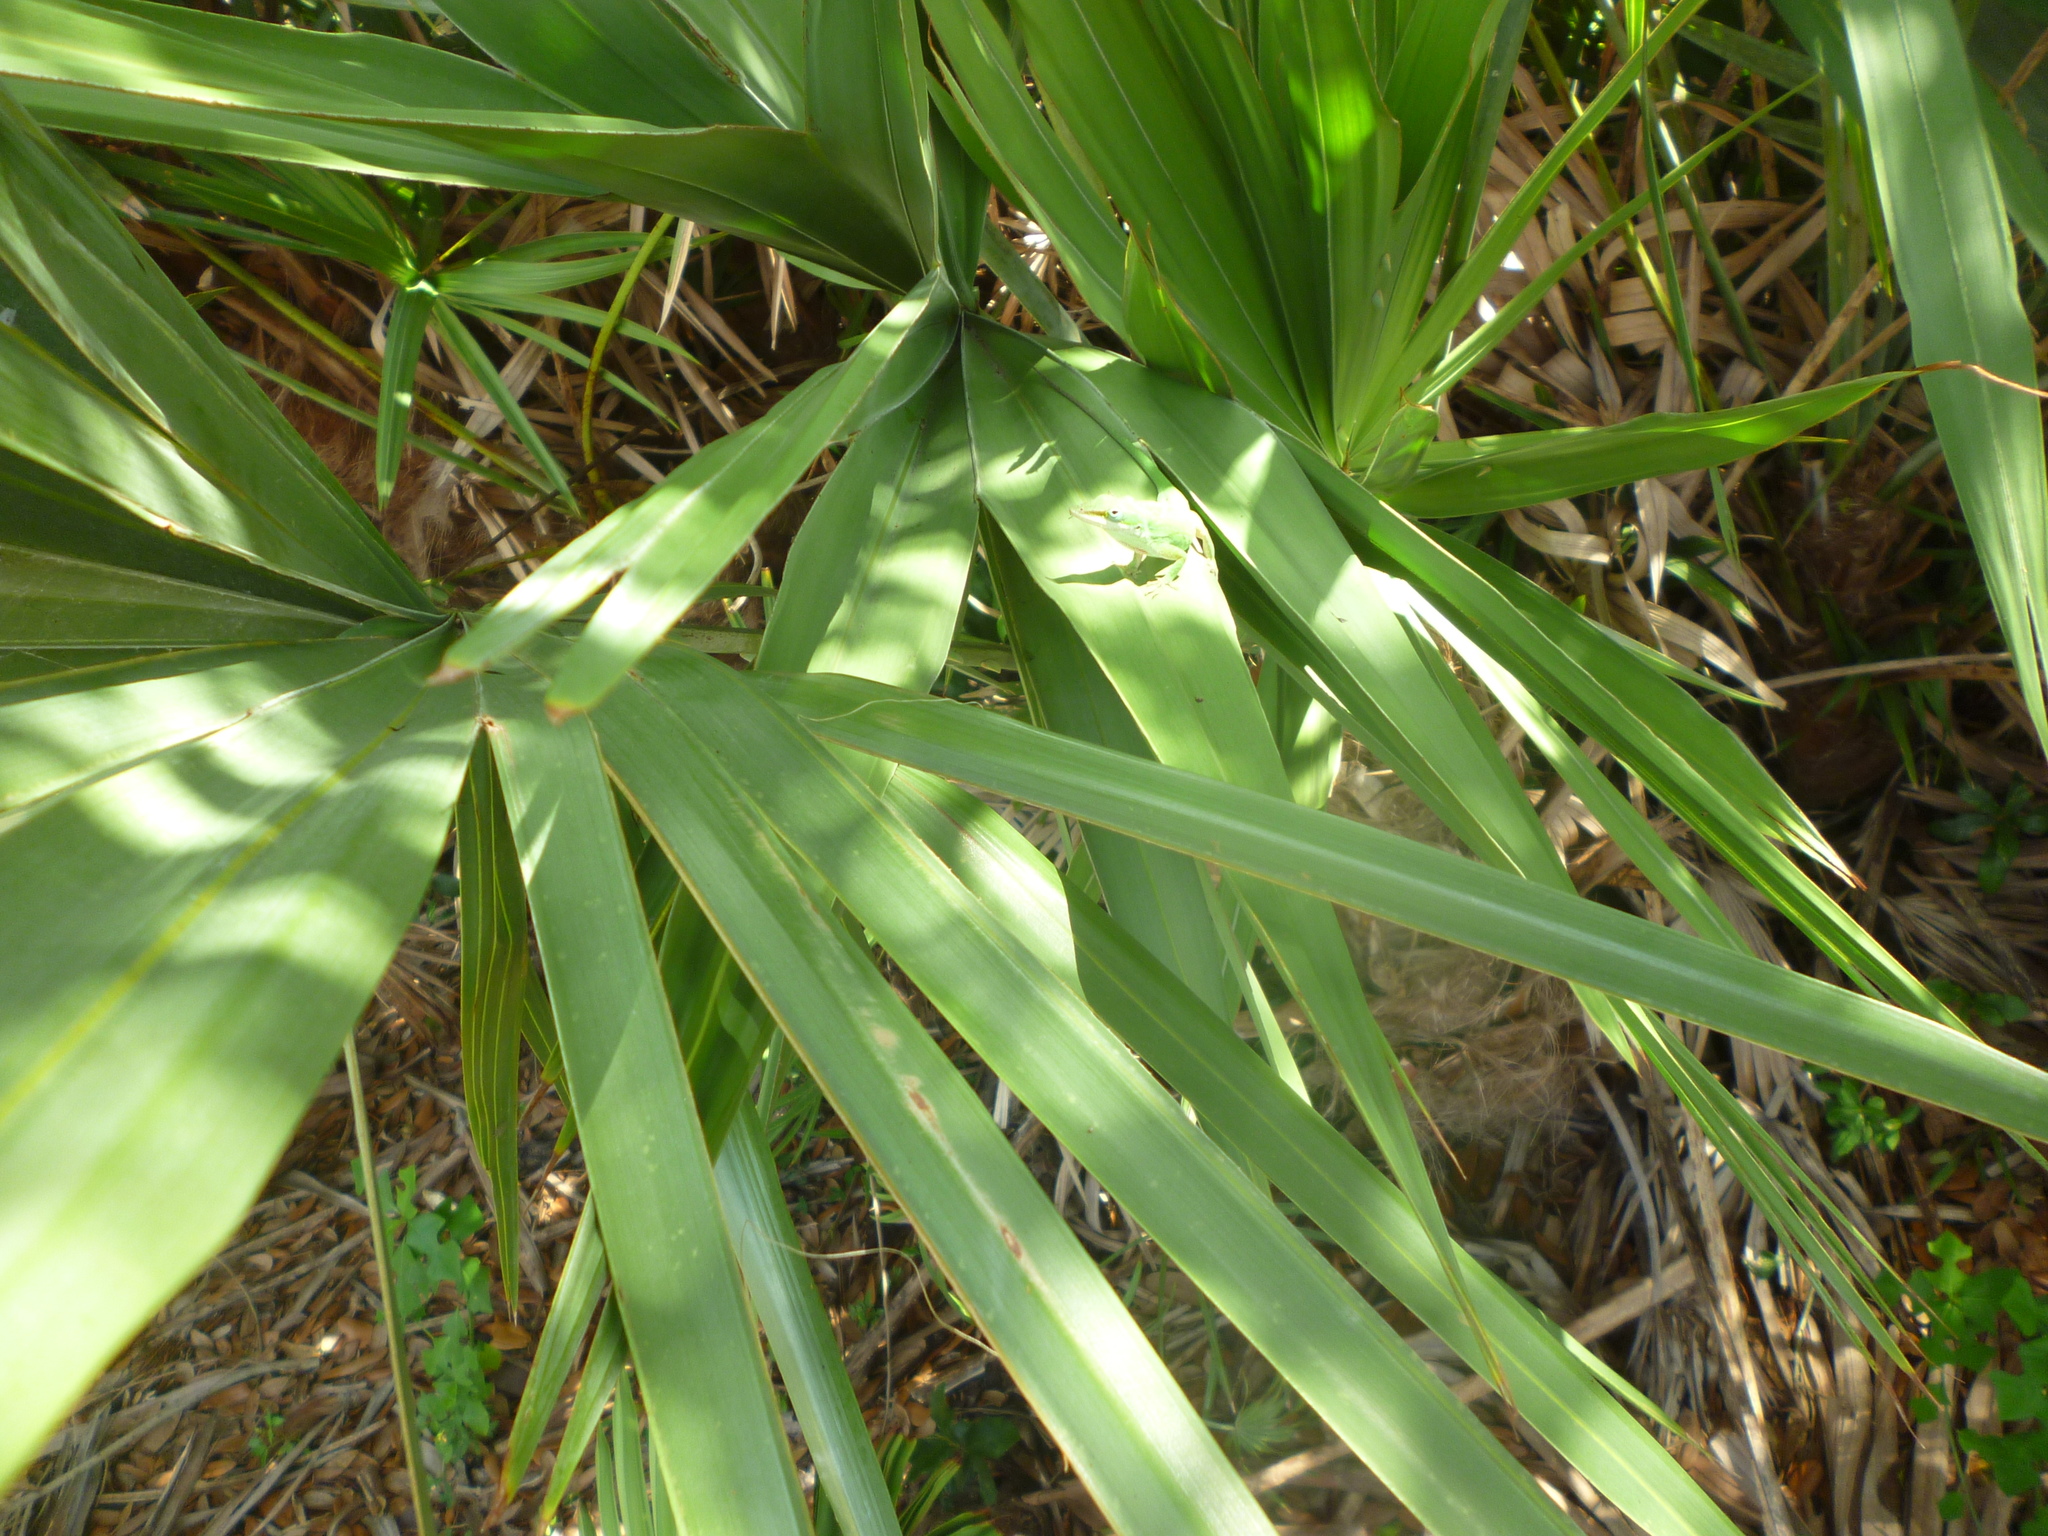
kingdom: Plantae
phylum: Tracheophyta
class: Liliopsida
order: Arecales
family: Arecaceae
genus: Serenoa
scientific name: Serenoa repens
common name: Saw-palmetto
